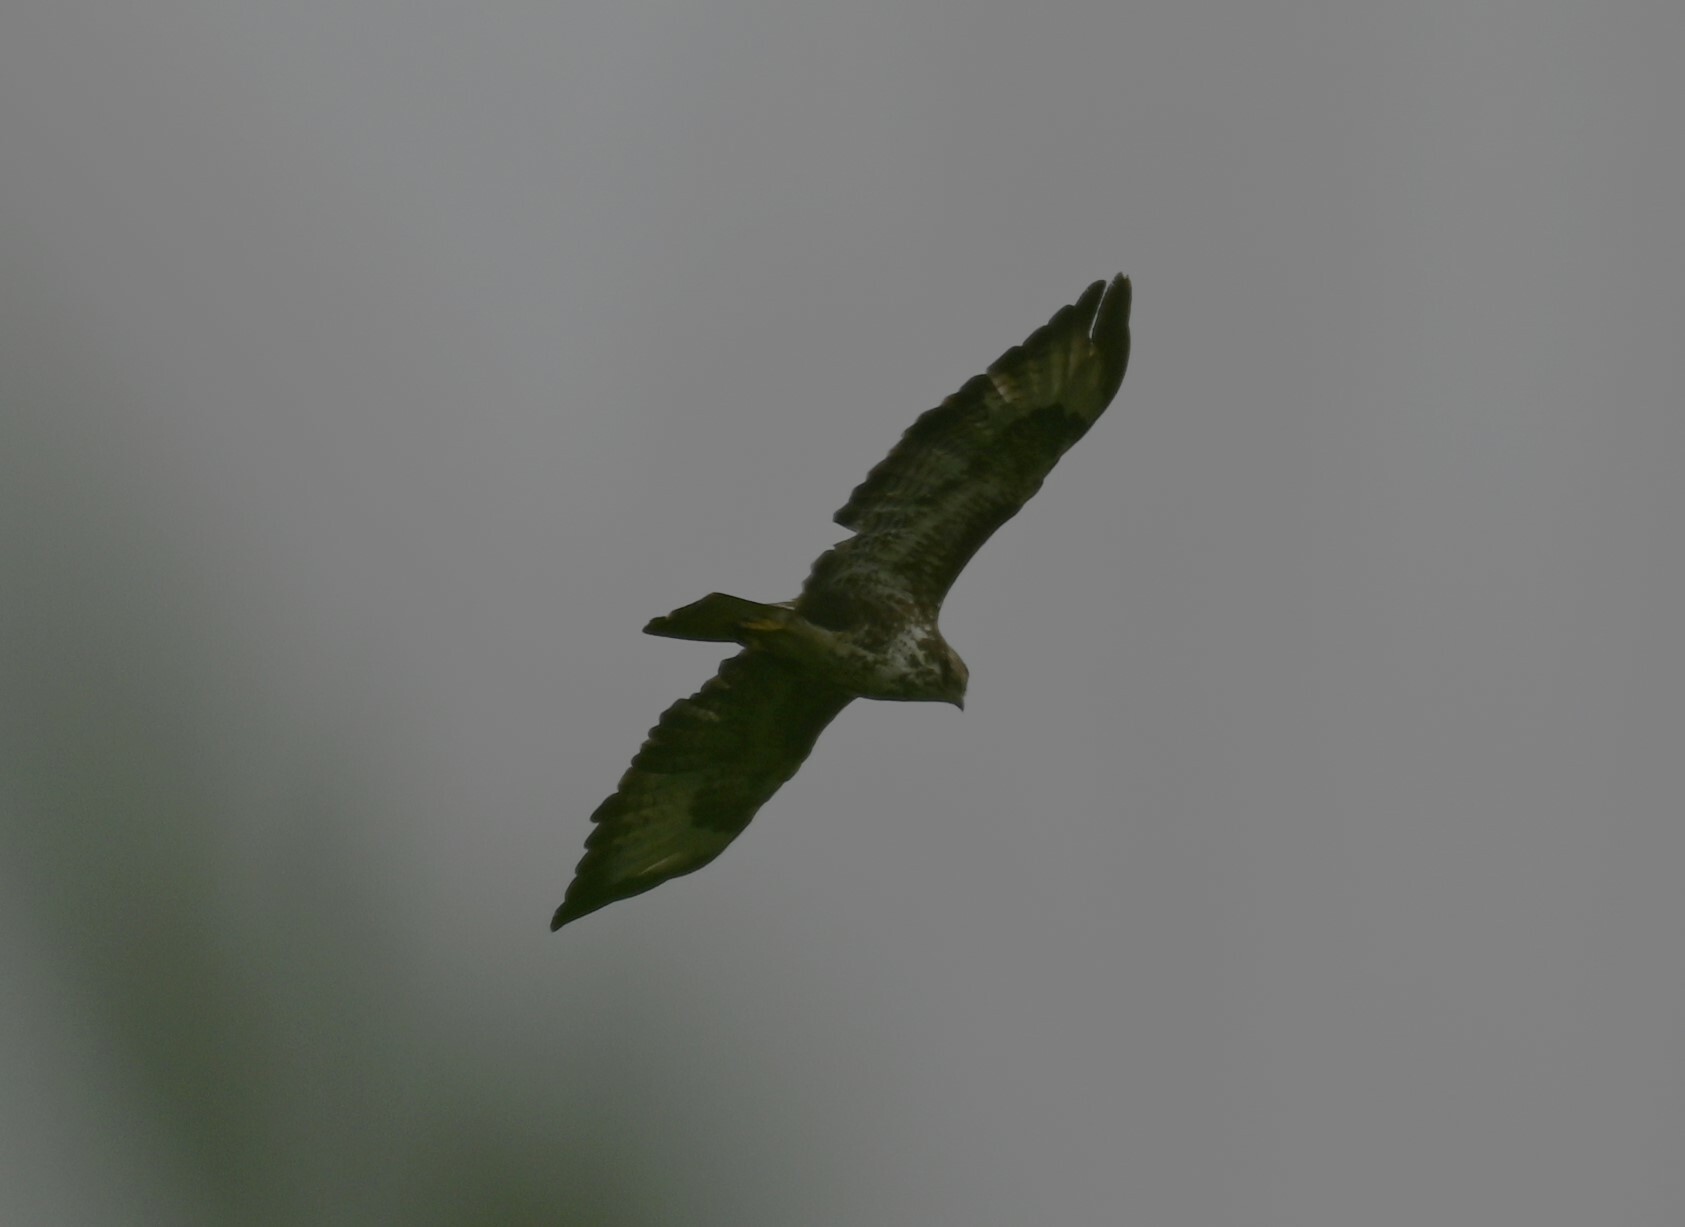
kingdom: Animalia
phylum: Chordata
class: Aves
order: Accipitriformes
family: Accipitridae
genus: Buteo
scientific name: Buteo buteo
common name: Common buzzard
